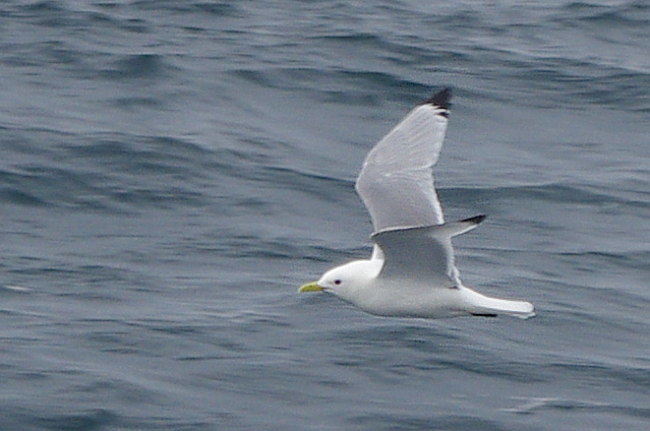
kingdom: Animalia
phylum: Chordata
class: Aves
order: Charadriiformes
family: Laridae
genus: Rissa
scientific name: Rissa tridactyla
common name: Black-legged kittiwake
